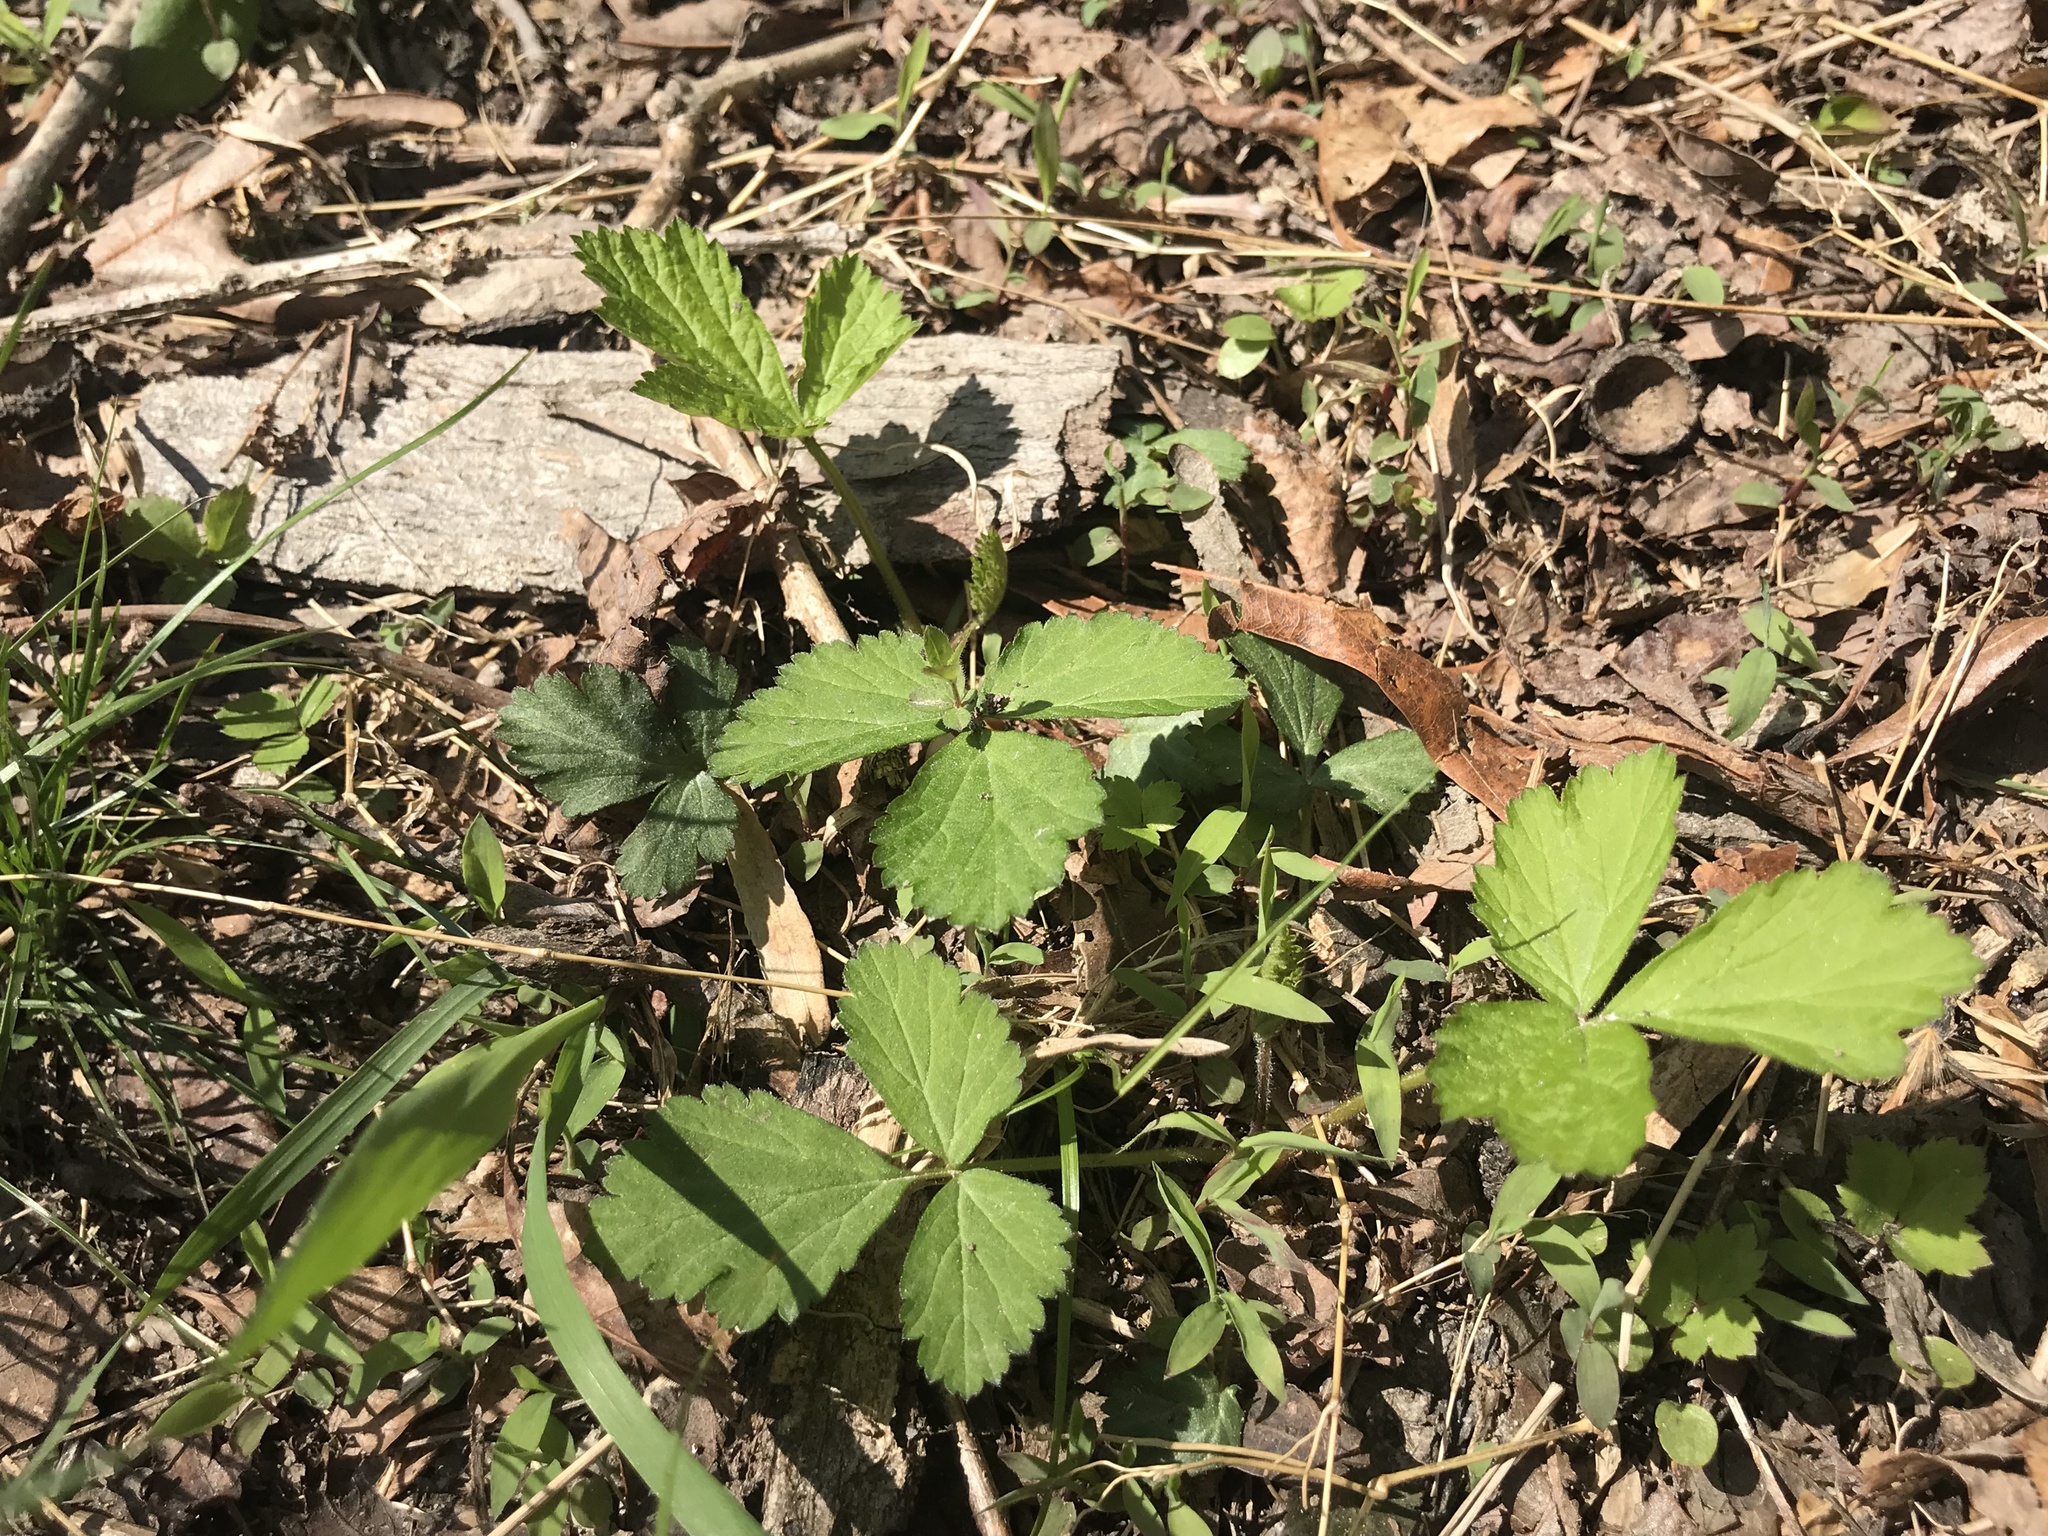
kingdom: Plantae
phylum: Tracheophyta
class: Magnoliopsida
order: Rosales
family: Rosaceae
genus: Potentilla
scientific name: Potentilla indica
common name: Yellow-flowered strawberry
